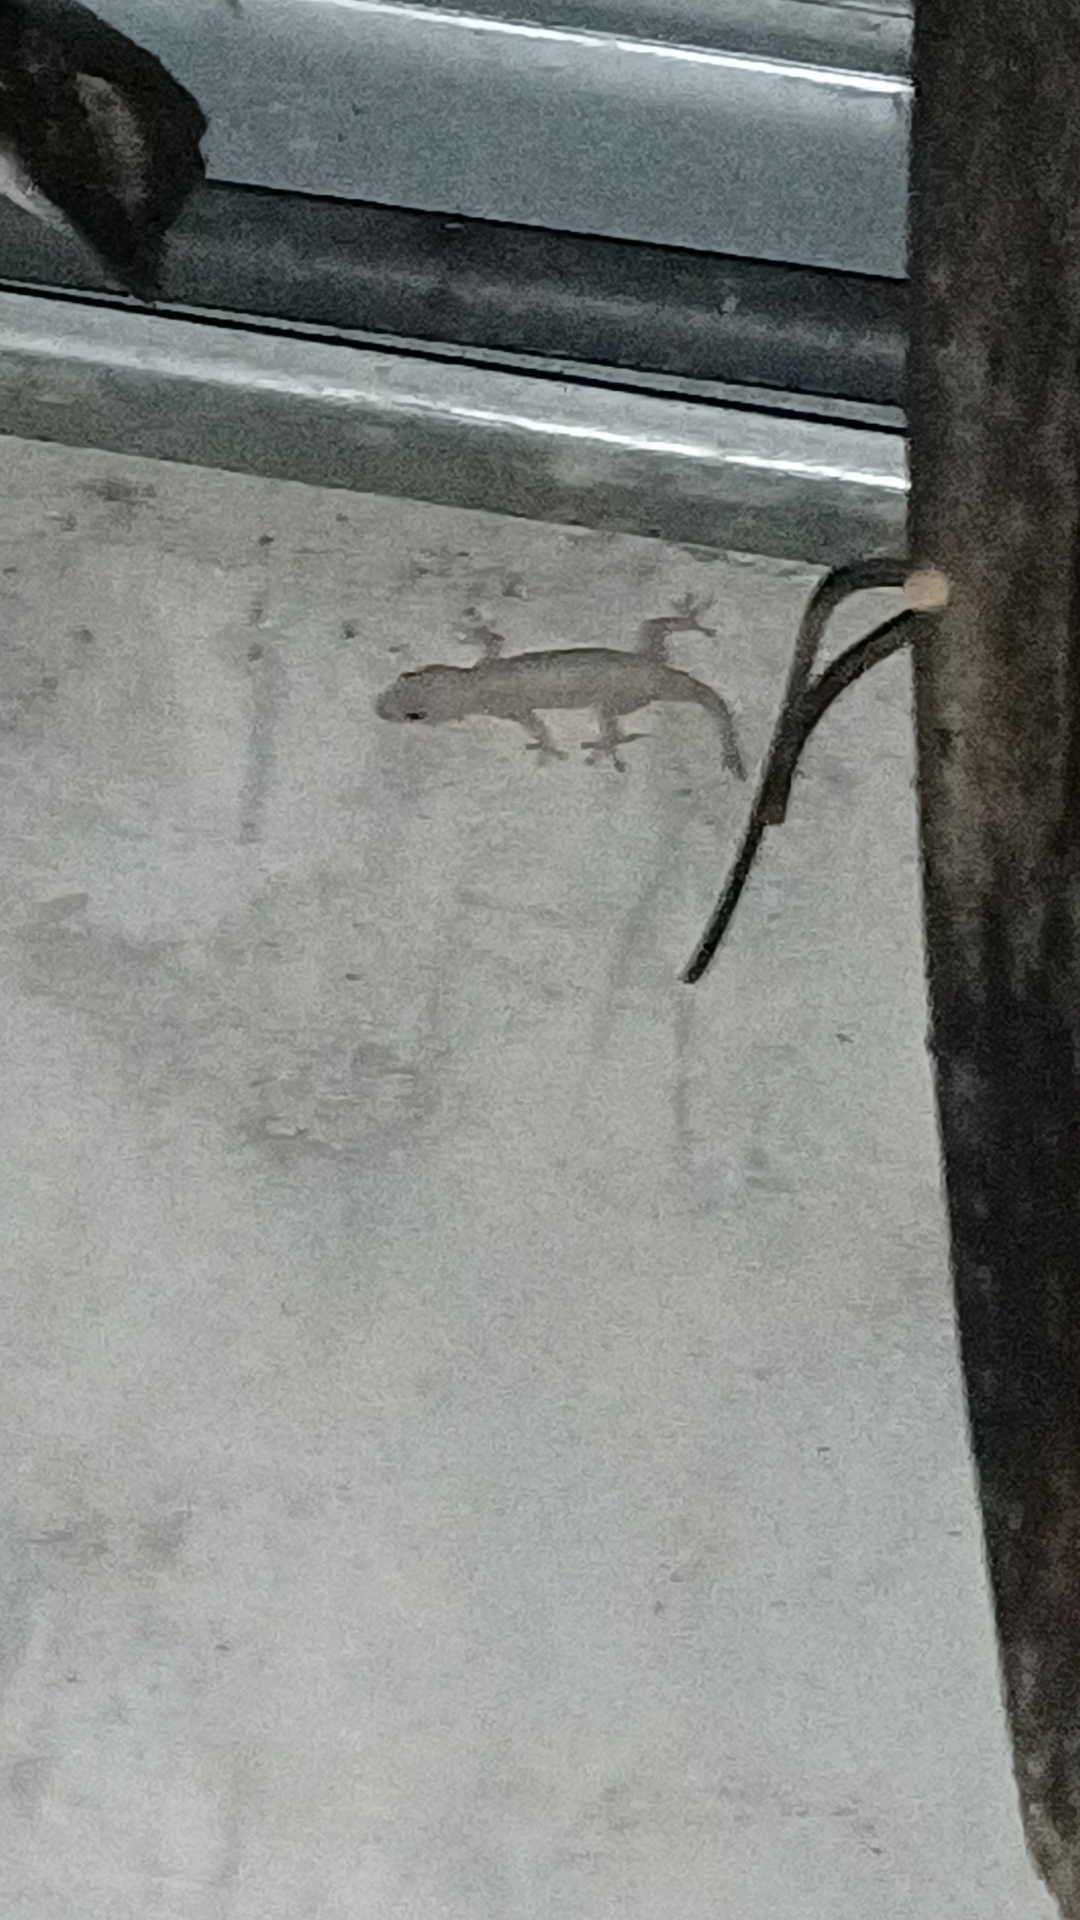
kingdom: Animalia
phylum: Chordata
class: Squamata
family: Gekkonidae
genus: Hemidactylus
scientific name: Hemidactylus frenatus
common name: Common house gecko
